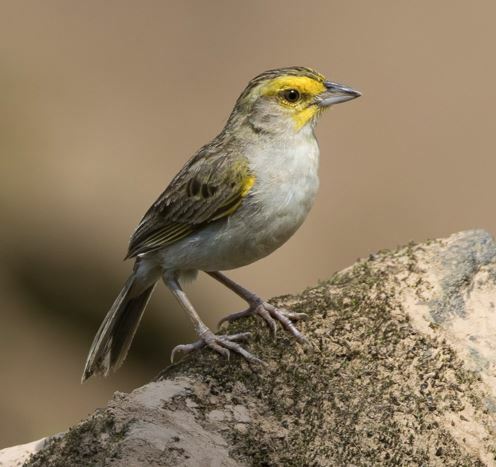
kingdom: Animalia
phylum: Chordata
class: Aves
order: Passeriformes
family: Passerellidae
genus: Ammodramus
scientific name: Ammodramus aurifrons
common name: Yellow-browed sparrow
